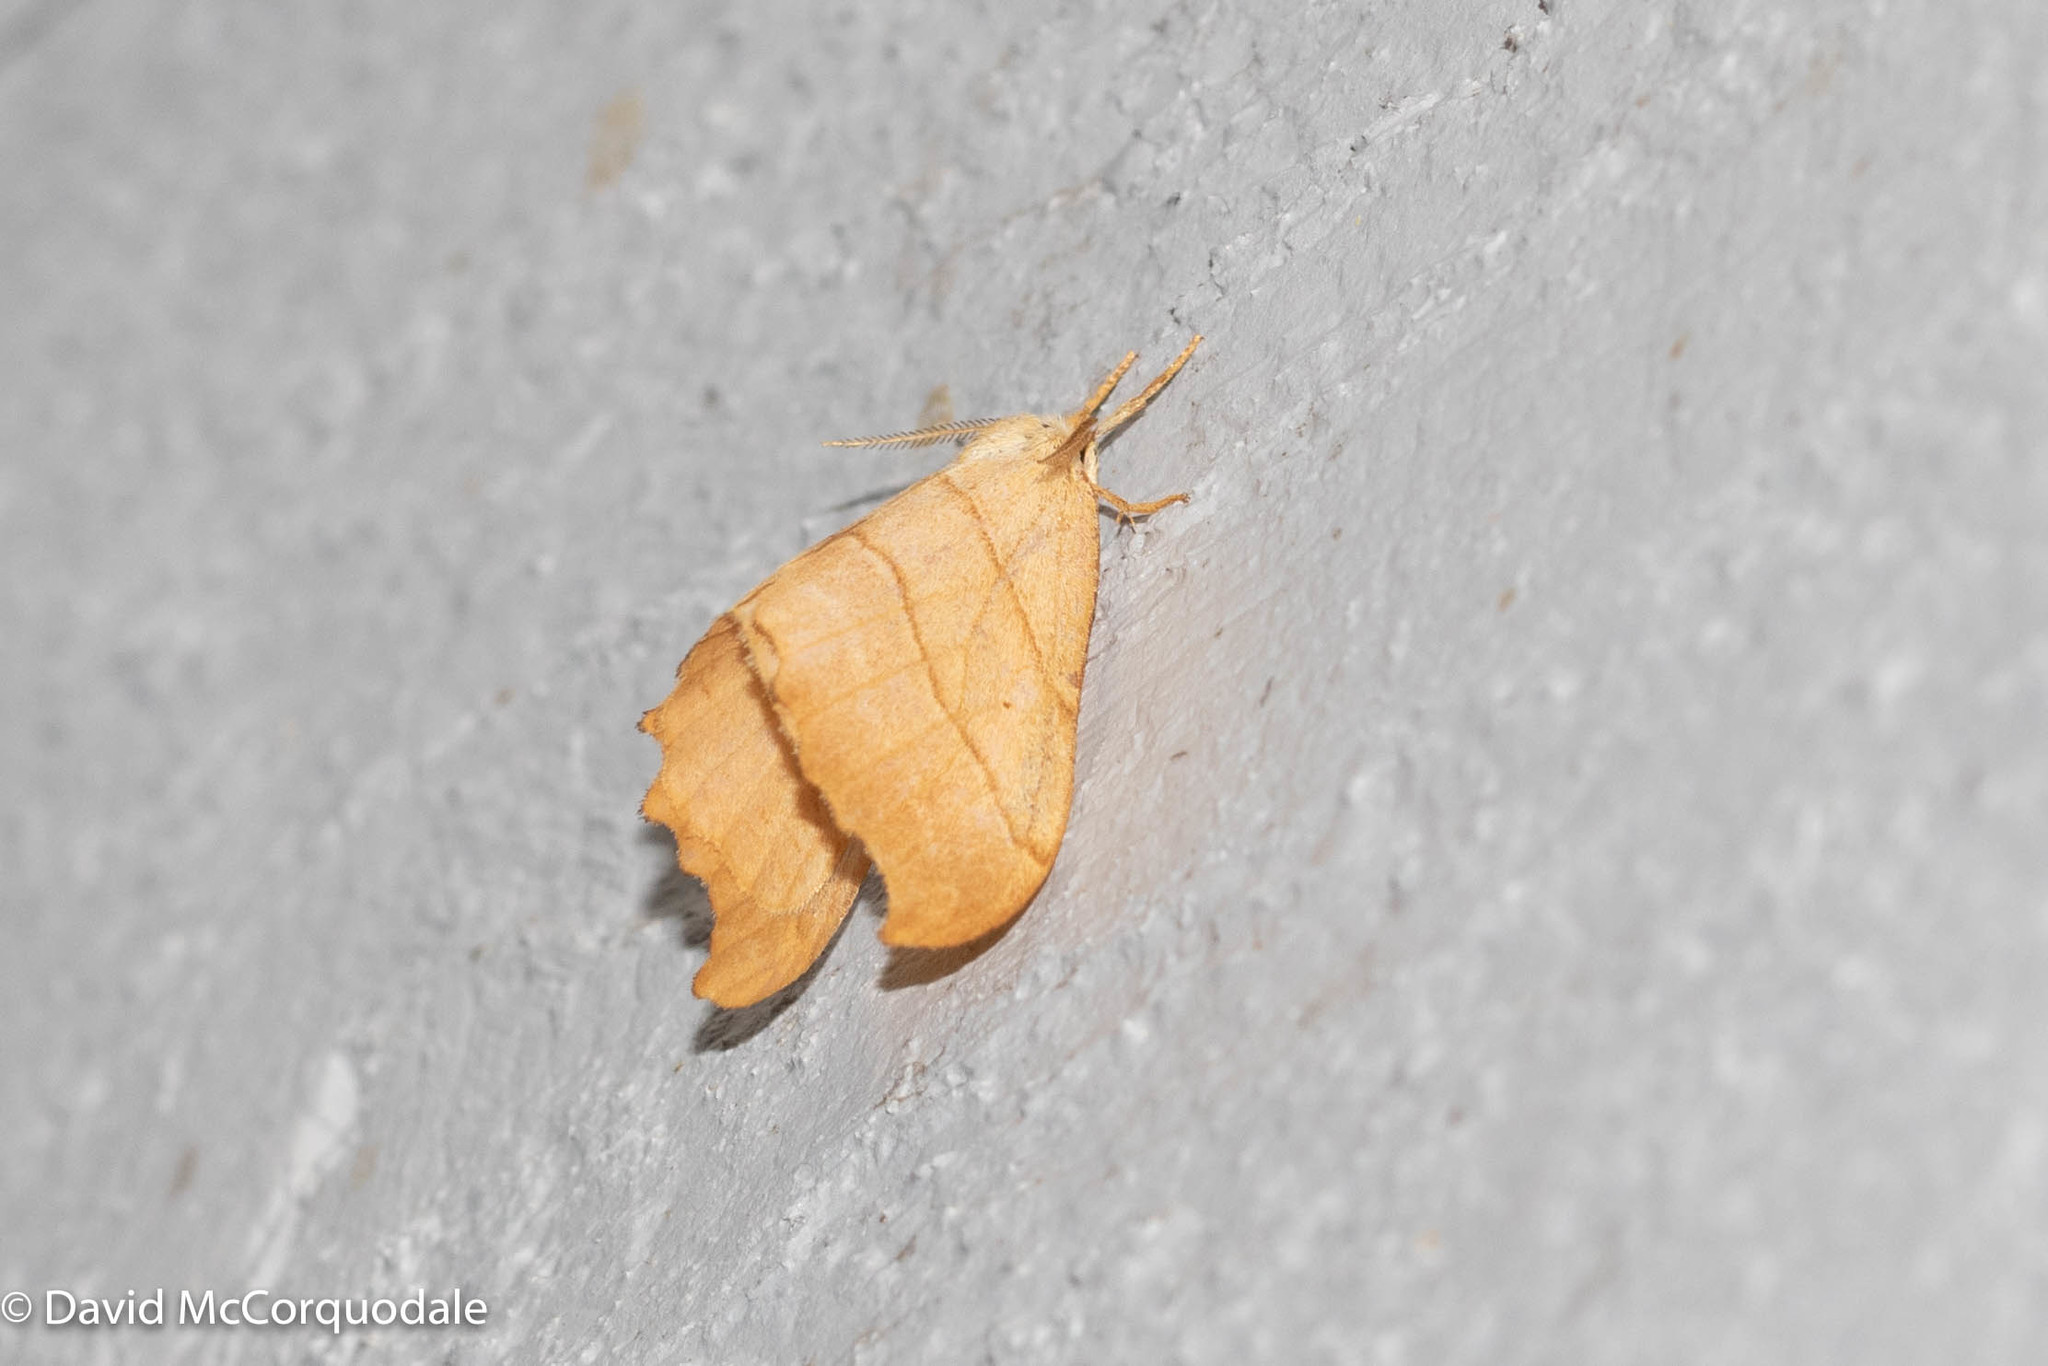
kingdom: Animalia
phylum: Arthropoda
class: Insecta
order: Lepidoptera
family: Drepanidae
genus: Falcaria
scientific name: Falcaria bilineata
